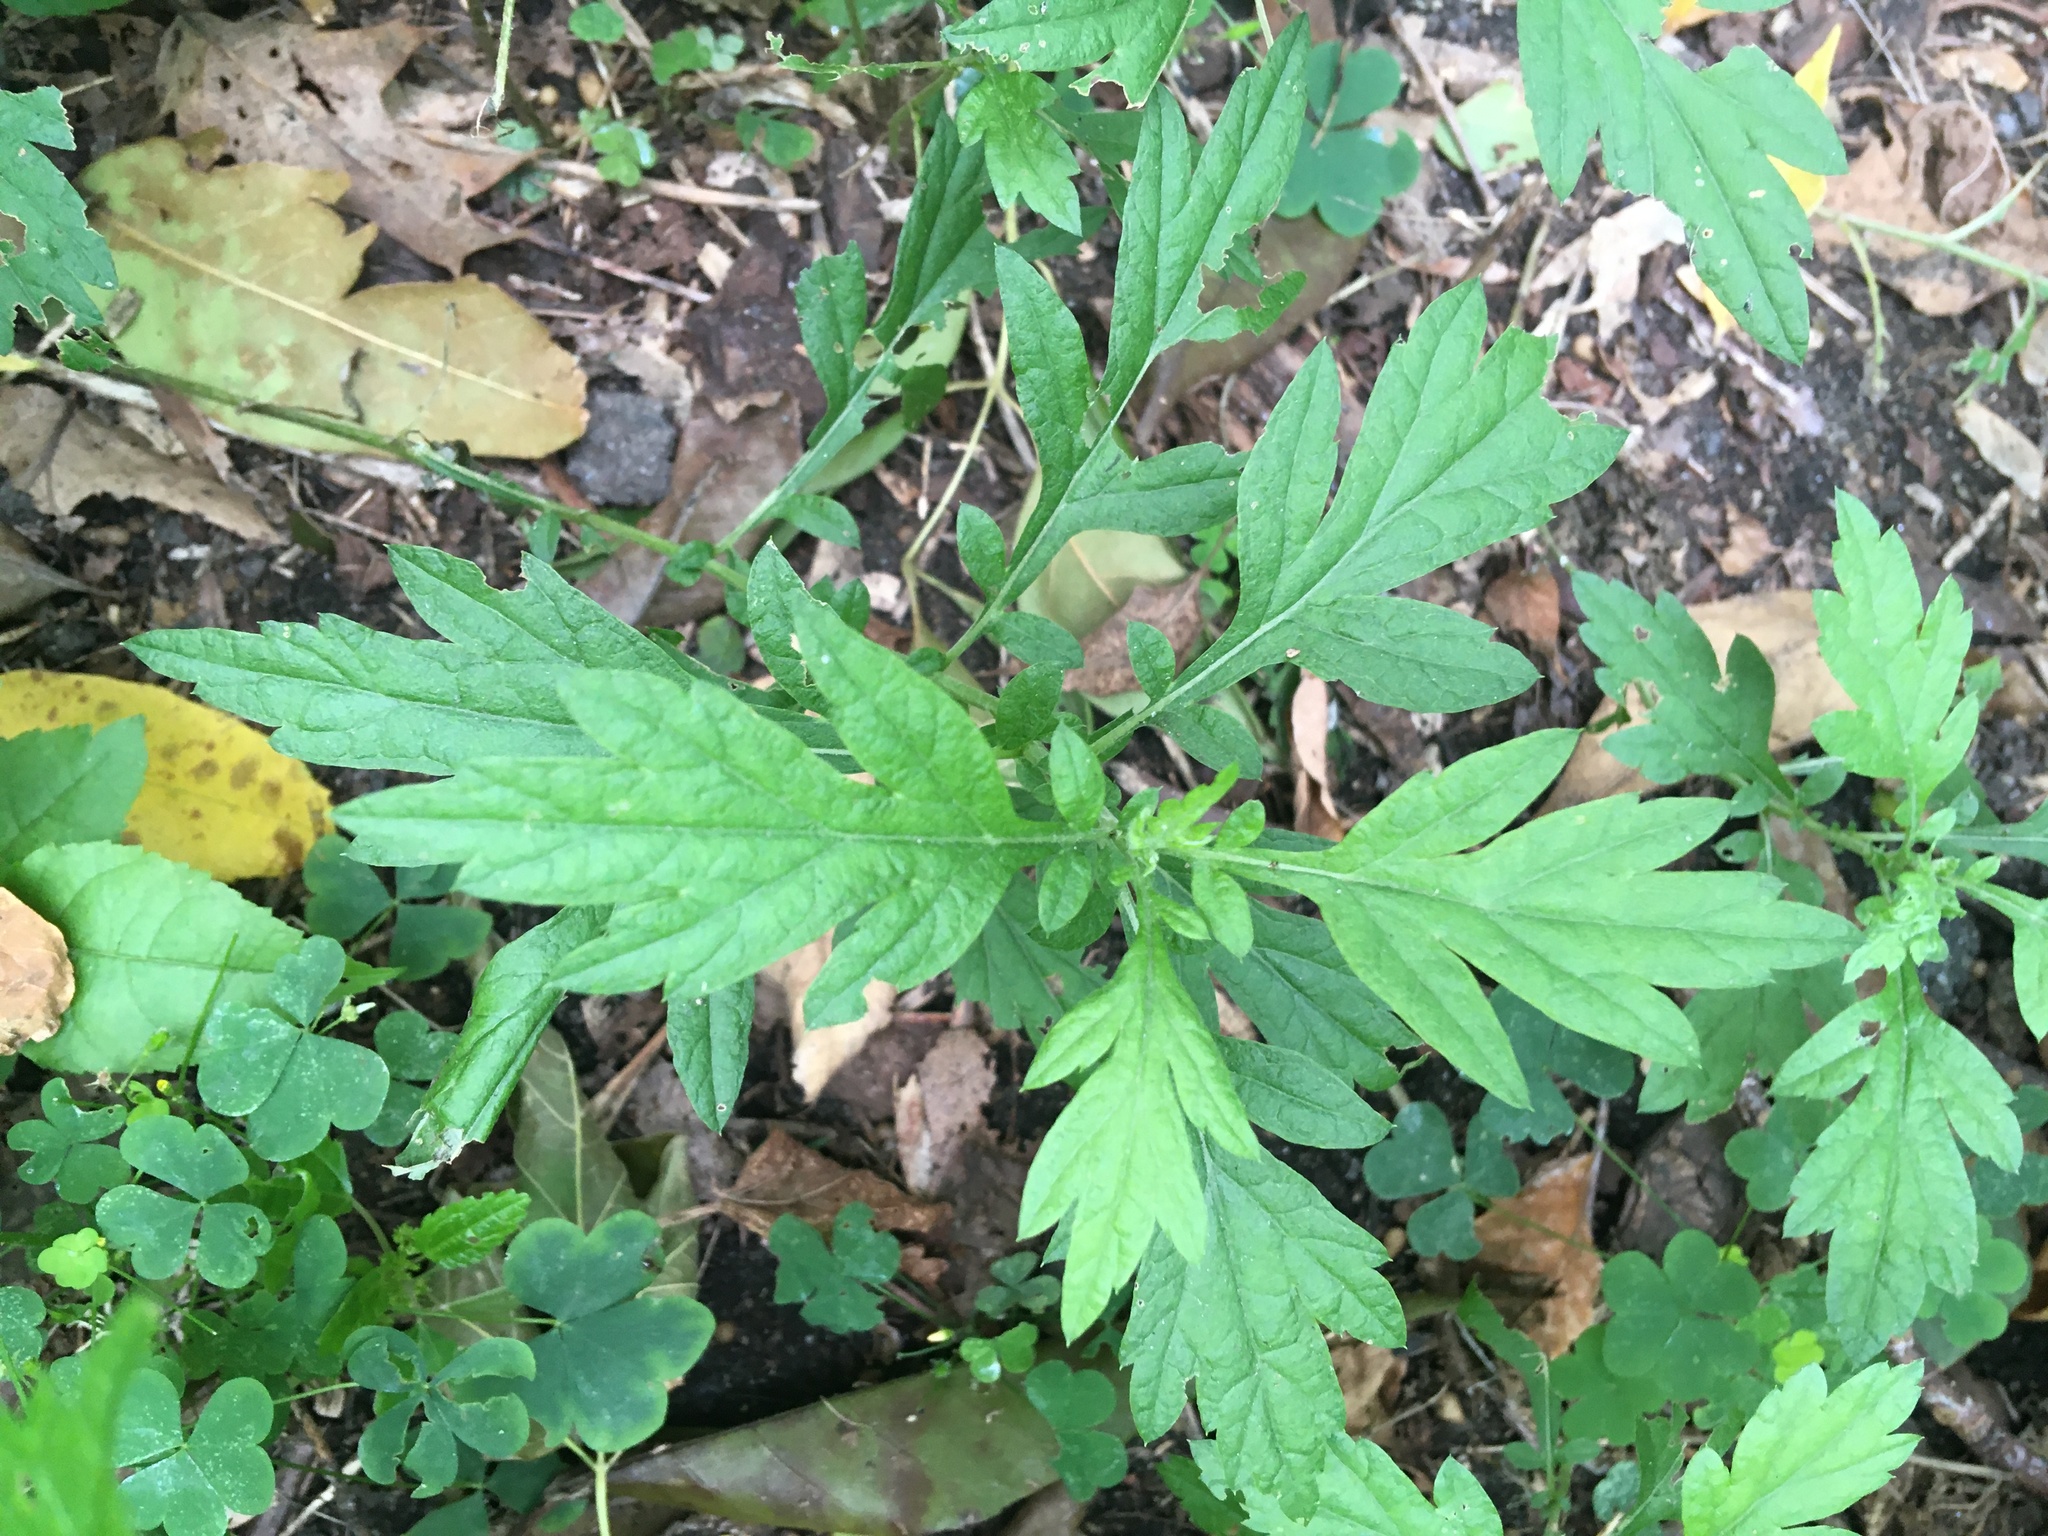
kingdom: Plantae
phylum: Tracheophyta
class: Magnoliopsida
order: Asterales
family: Asteraceae
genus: Artemisia
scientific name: Artemisia vulgaris
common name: Mugwort
